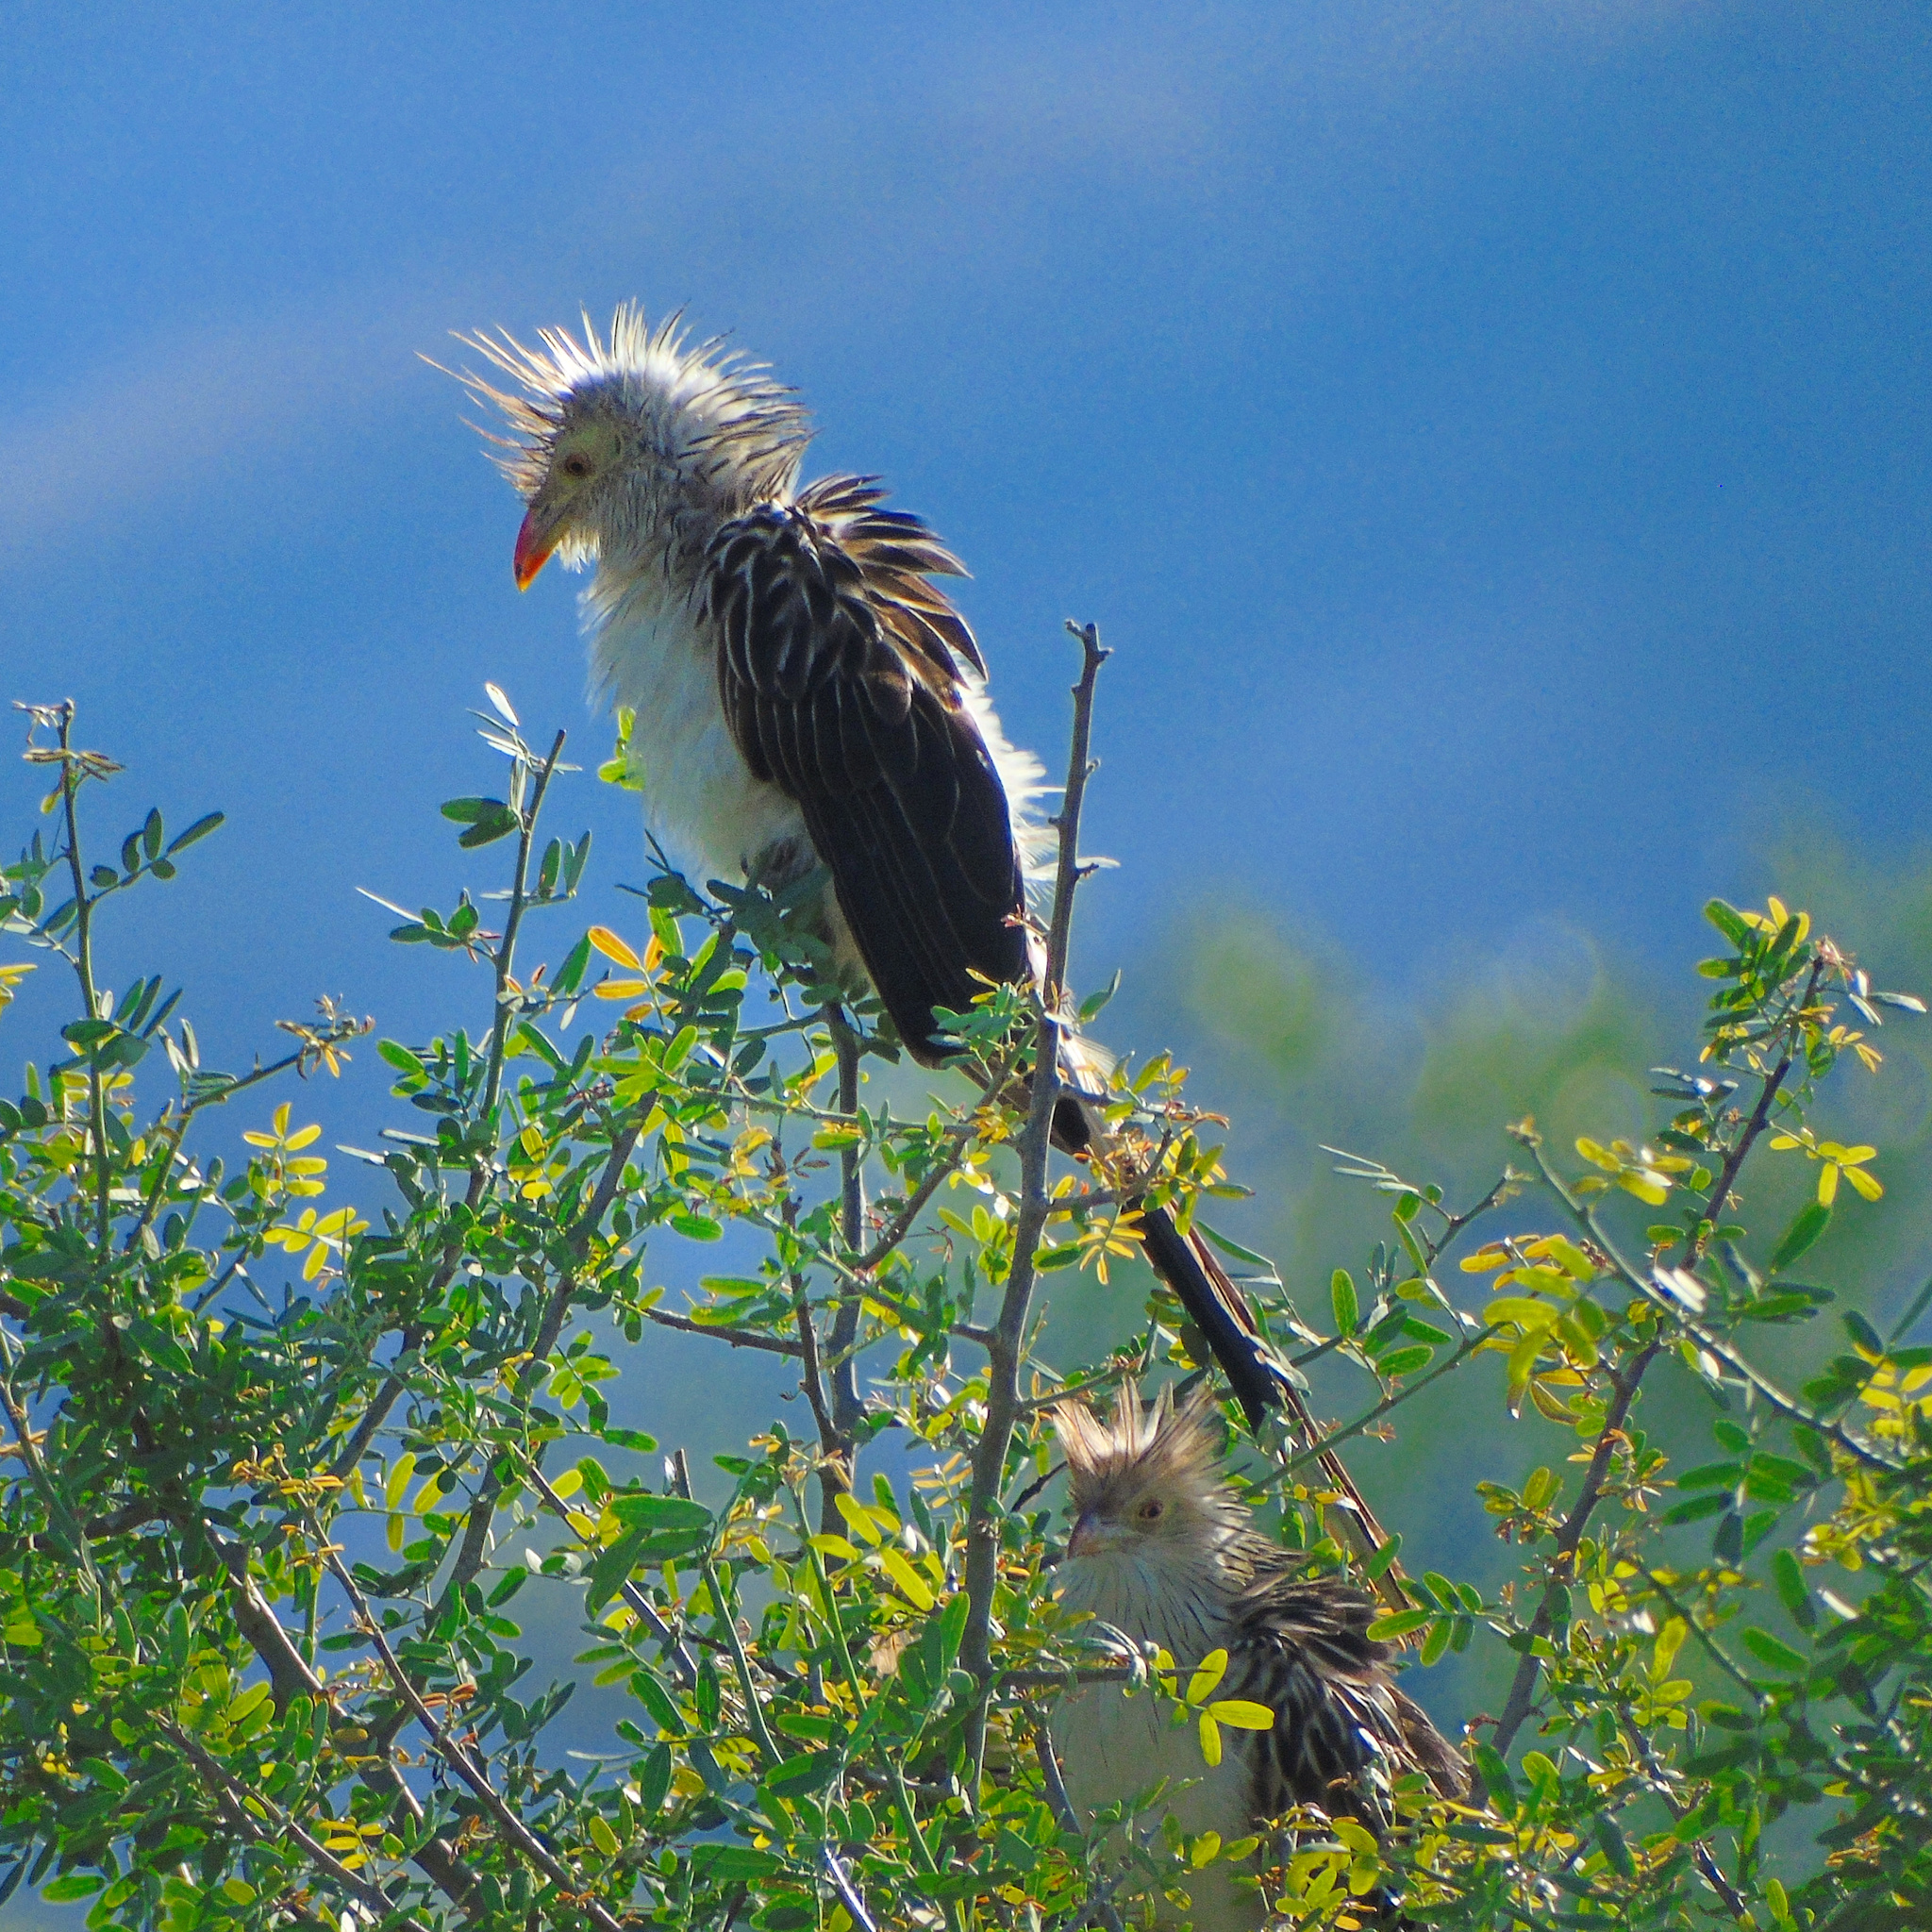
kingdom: Animalia
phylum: Chordata
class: Aves
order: Cuculiformes
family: Cuculidae
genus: Guira
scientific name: Guira guira
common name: Guira cuckoo
